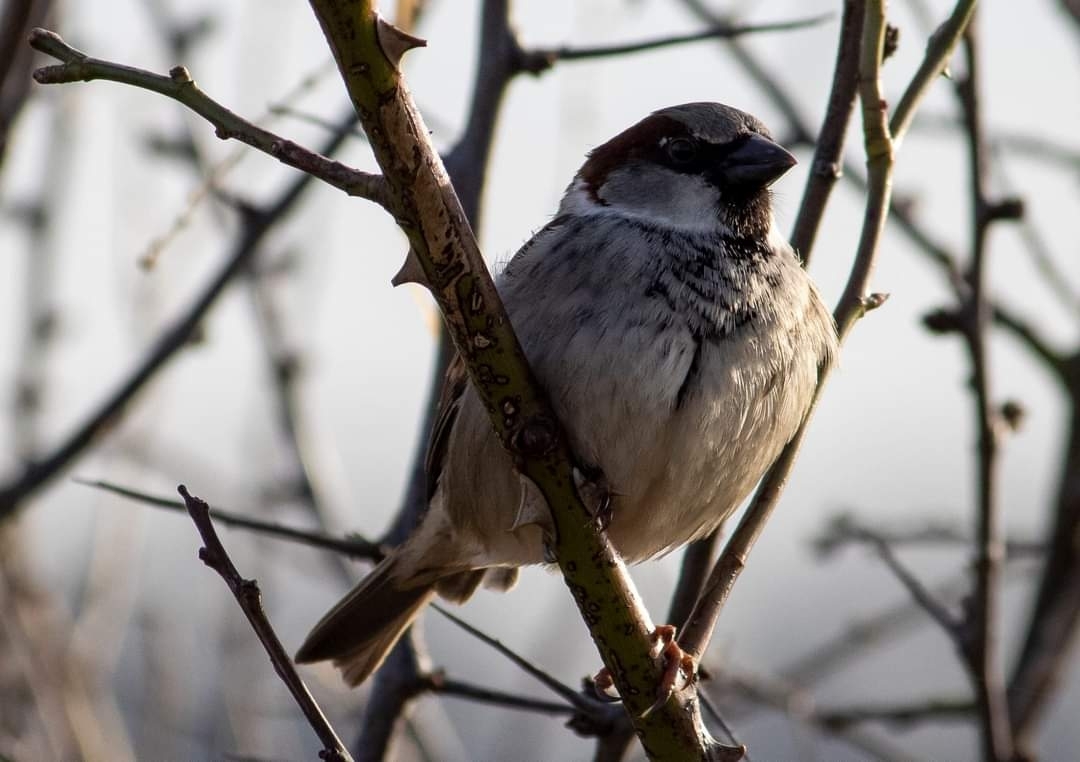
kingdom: Animalia
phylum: Chordata
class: Aves
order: Passeriformes
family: Passeridae
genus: Passer
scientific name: Passer domesticus
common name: House sparrow
